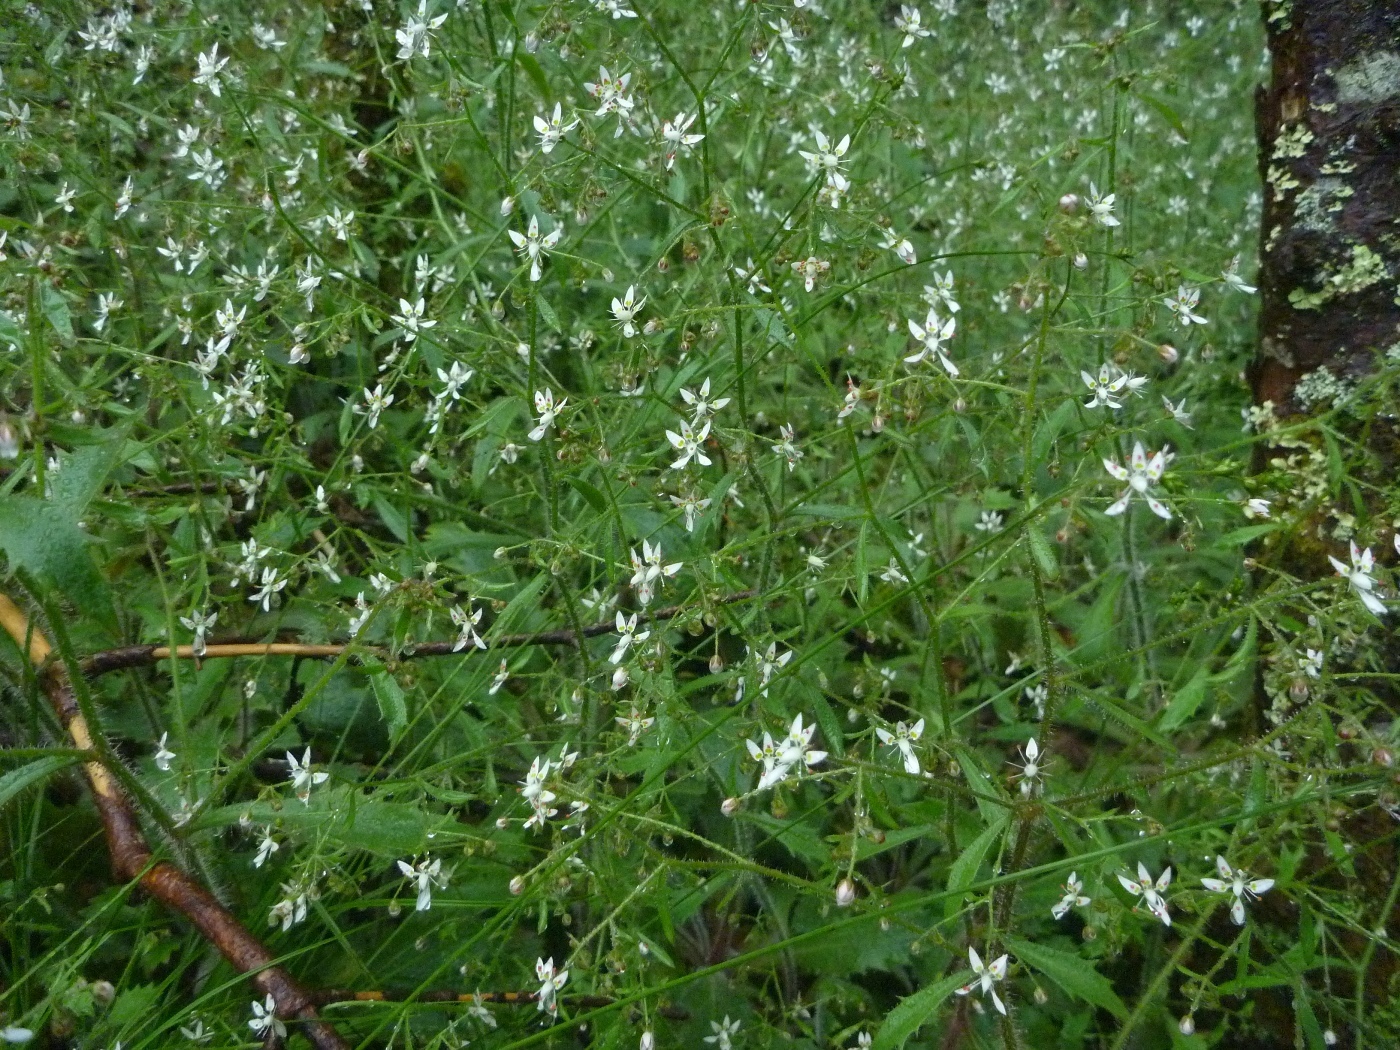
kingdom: Plantae
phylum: Tracheophyta
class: Magnoliopsida
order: Saxifragales
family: Saxifragaceae
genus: Micranthes
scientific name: Micranthes petiolaris
